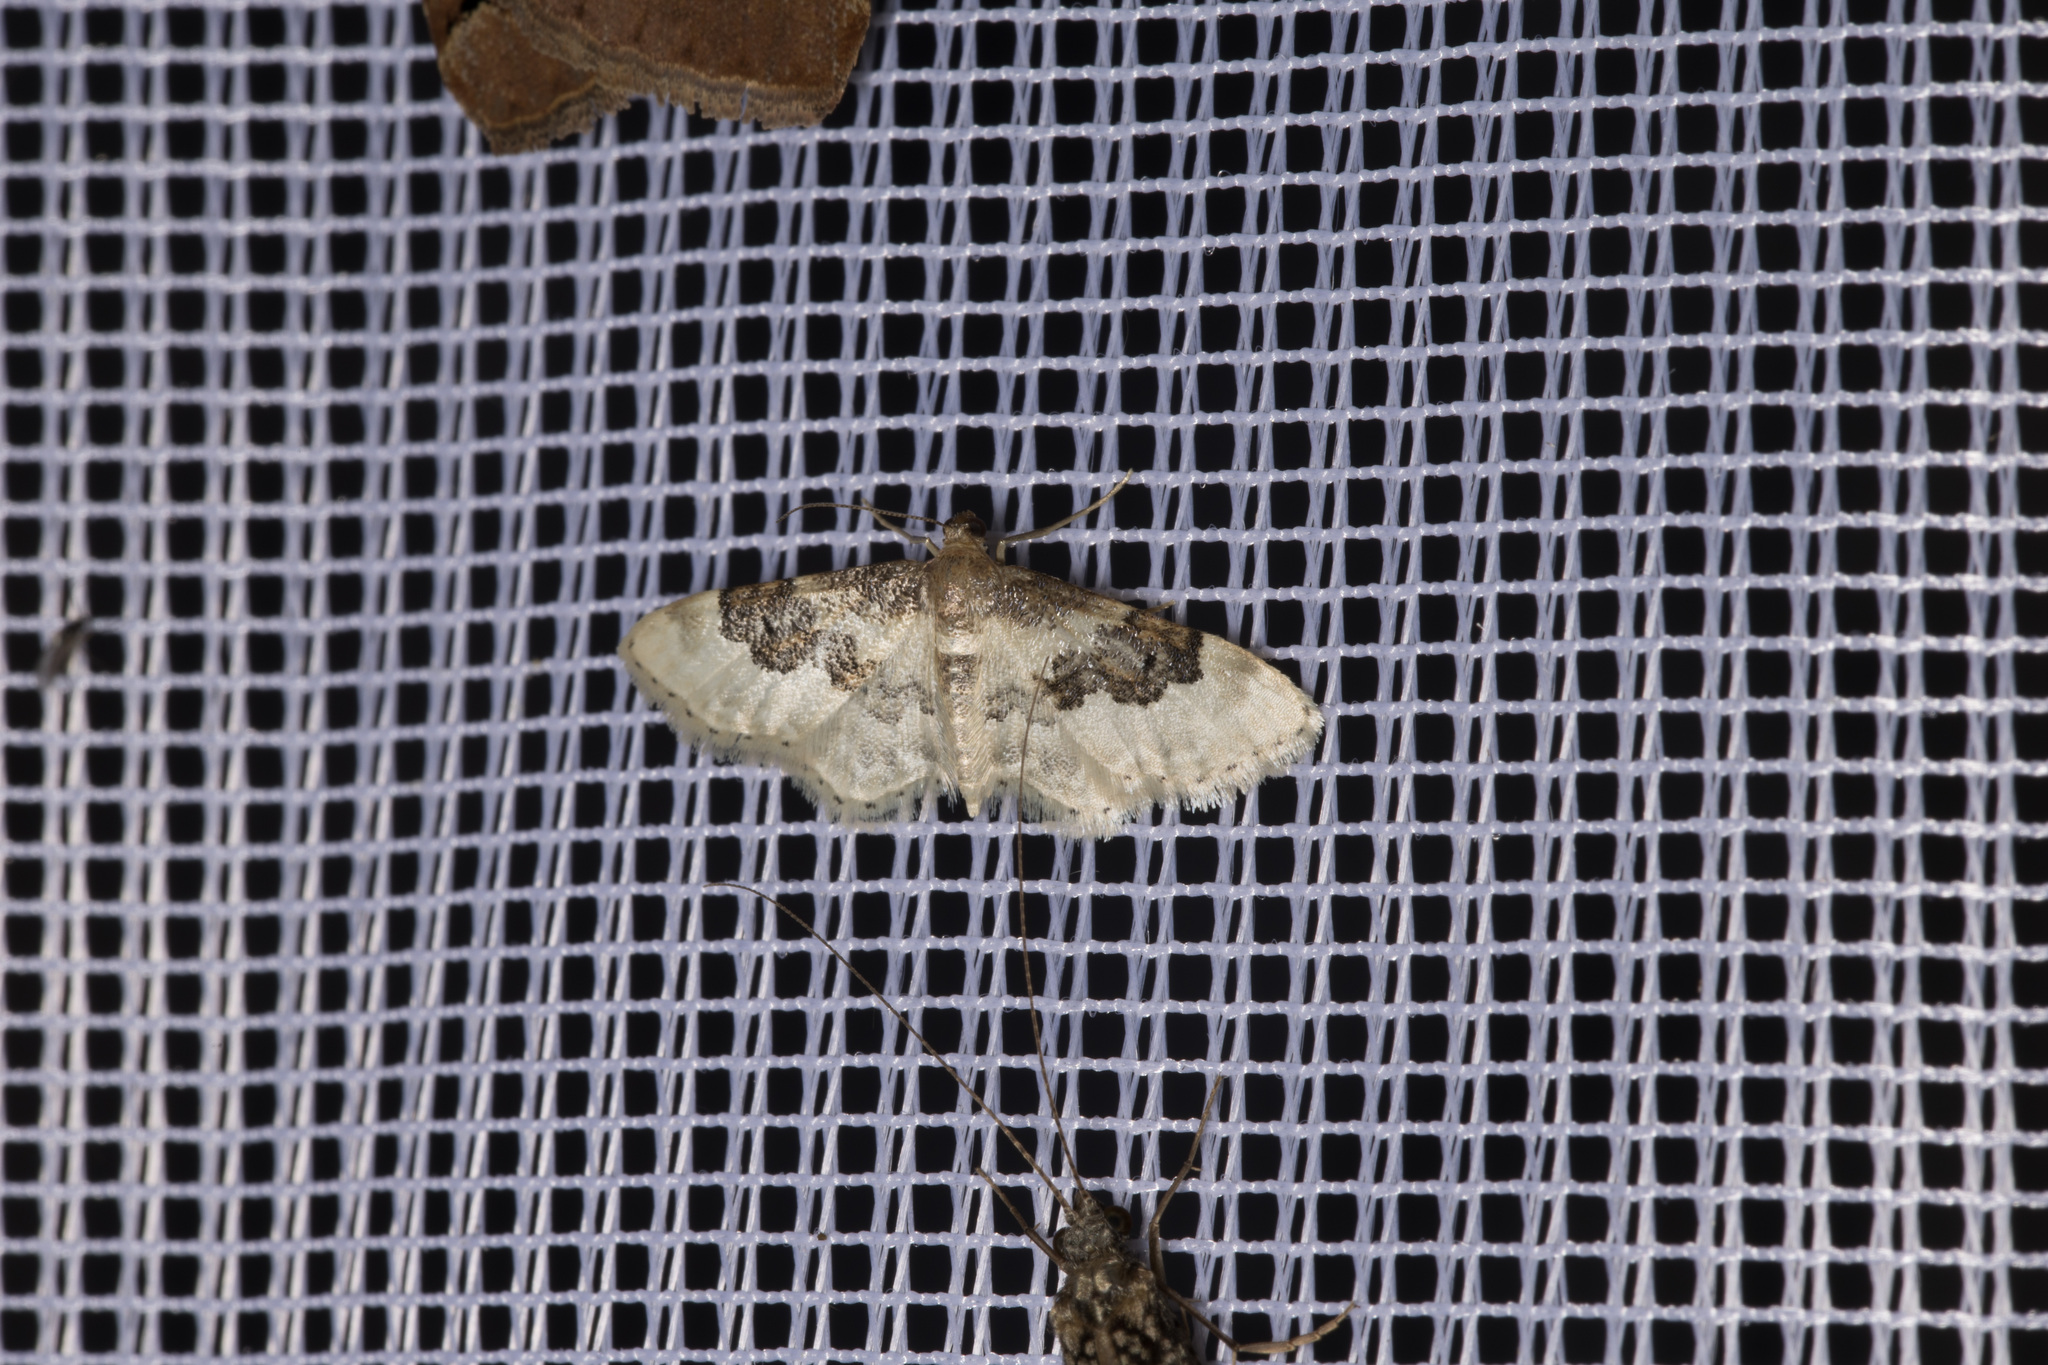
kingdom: Animalia
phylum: Arthropoda
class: Insecta
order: Lepidoptera
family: Geometridae
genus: Idaea
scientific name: Idaea rusticata
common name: Least carpet
